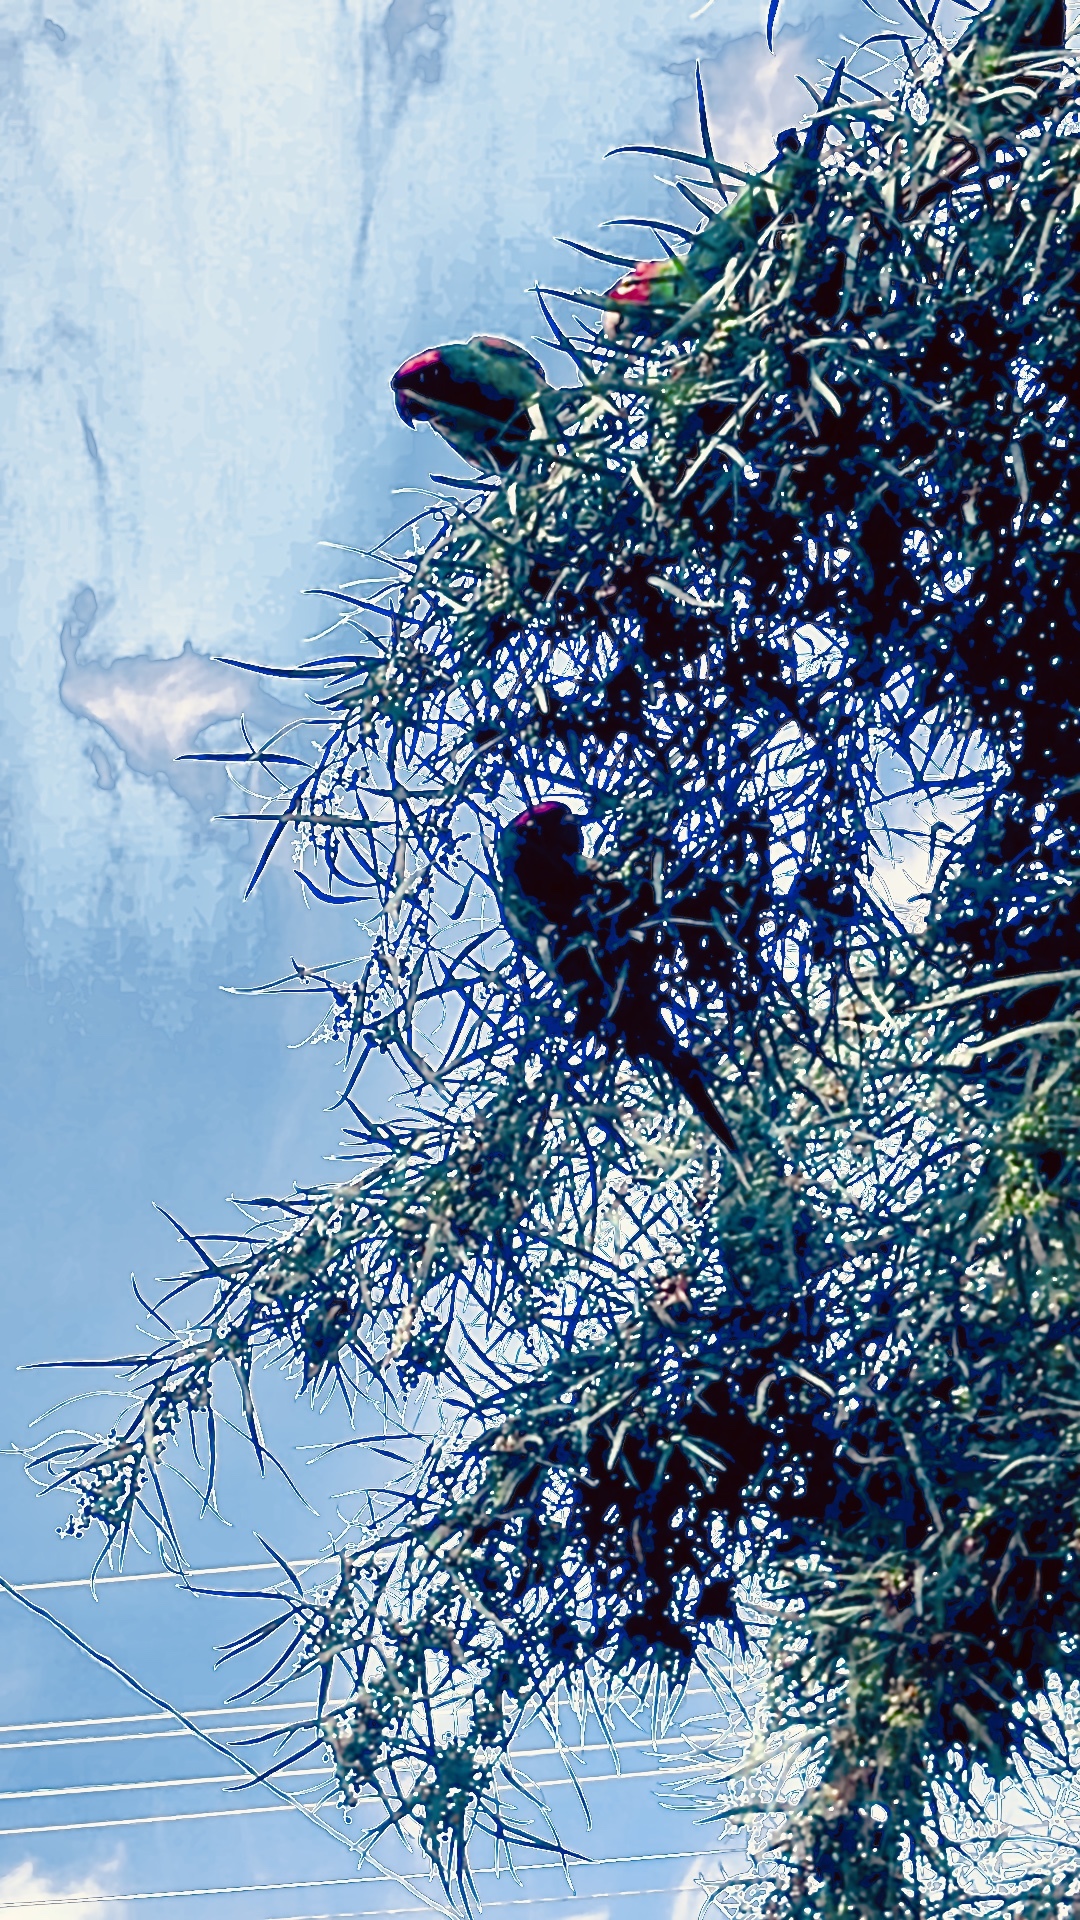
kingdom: Animalia
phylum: Chordata
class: Aves
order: Psittaciformes
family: Psittacidae
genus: Aratinga
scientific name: Aratinga erythrogenys
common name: Red-masked parakeet
